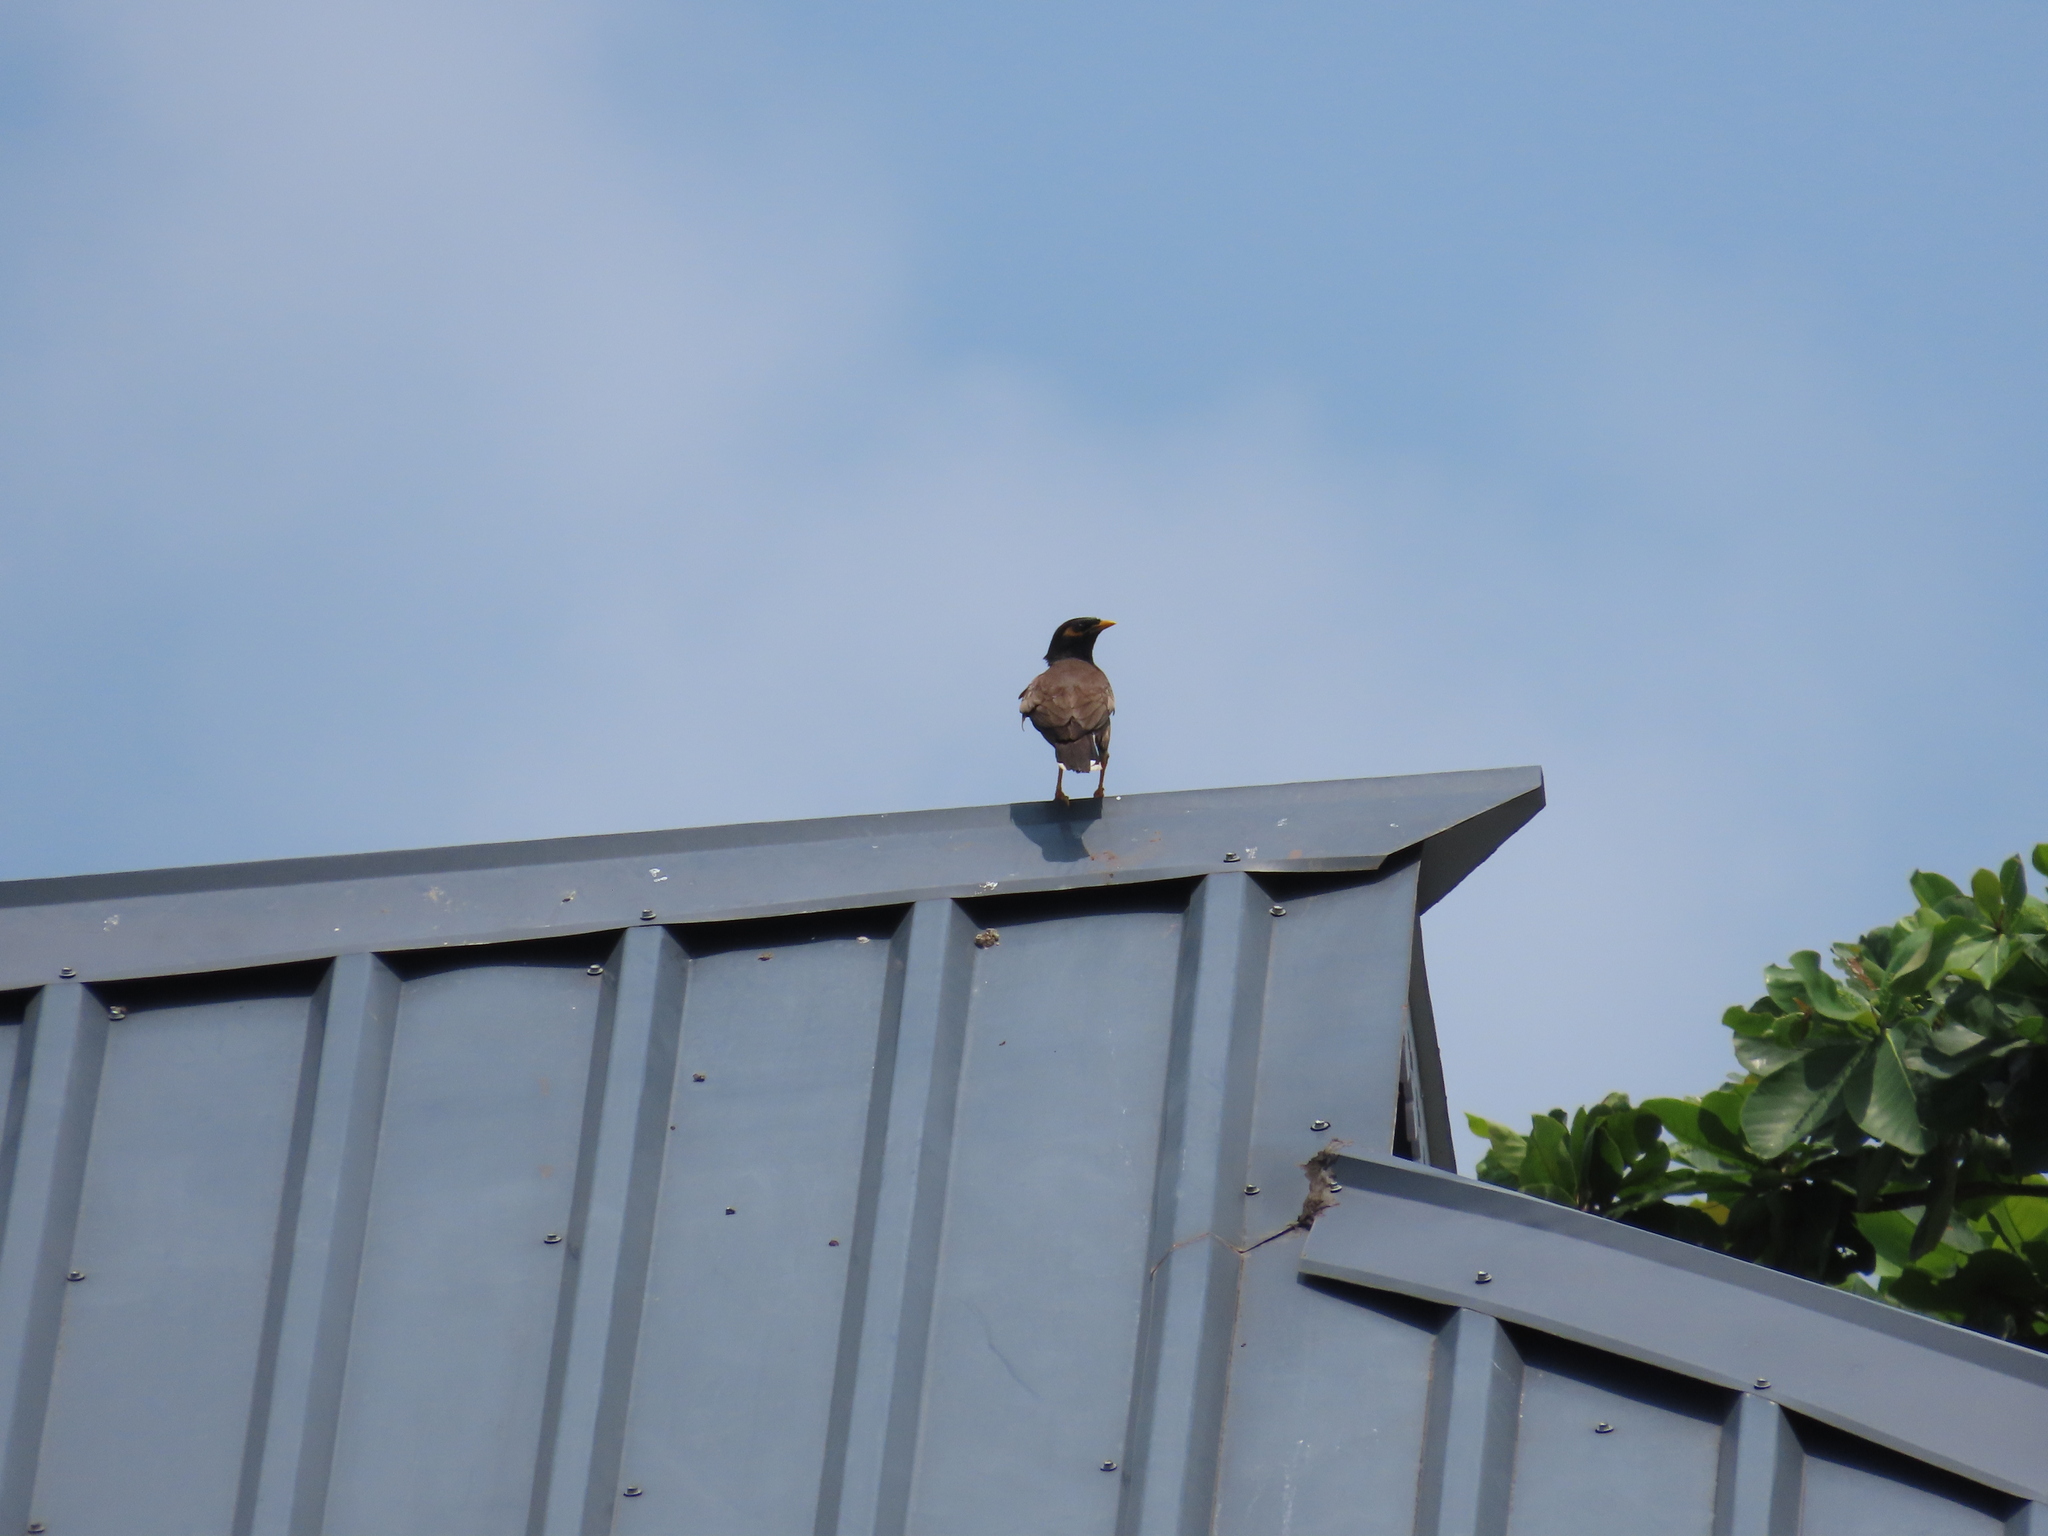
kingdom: Animalia
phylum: Chordata
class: Aves
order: Passeriformes
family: Sturnidae
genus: Acridotheres
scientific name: Acridotheres tristis
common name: Common myna
